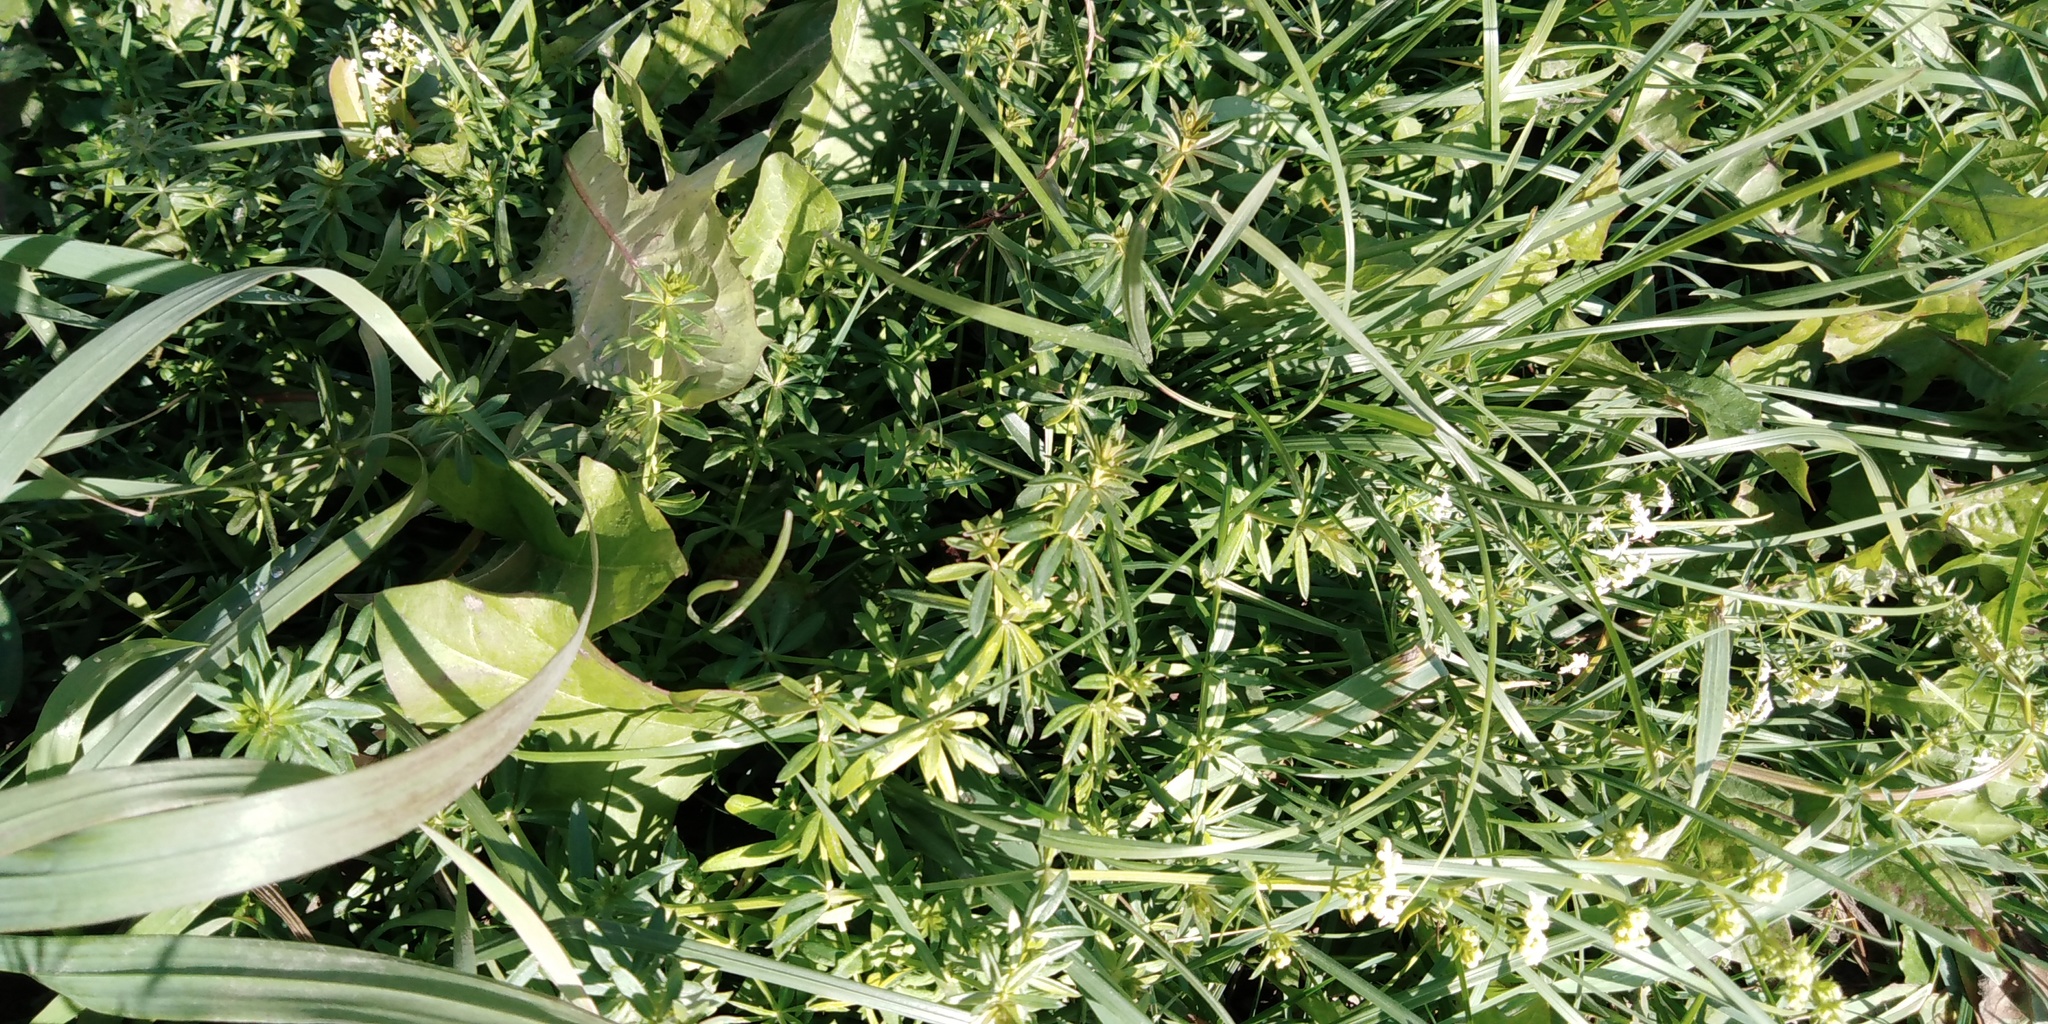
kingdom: Plantae
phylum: Tracheophyta
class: Magnoliopsida
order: Gentianales
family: Rubiaceae
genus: Galium
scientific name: Galium mollugo
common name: Hedge bedstraw
